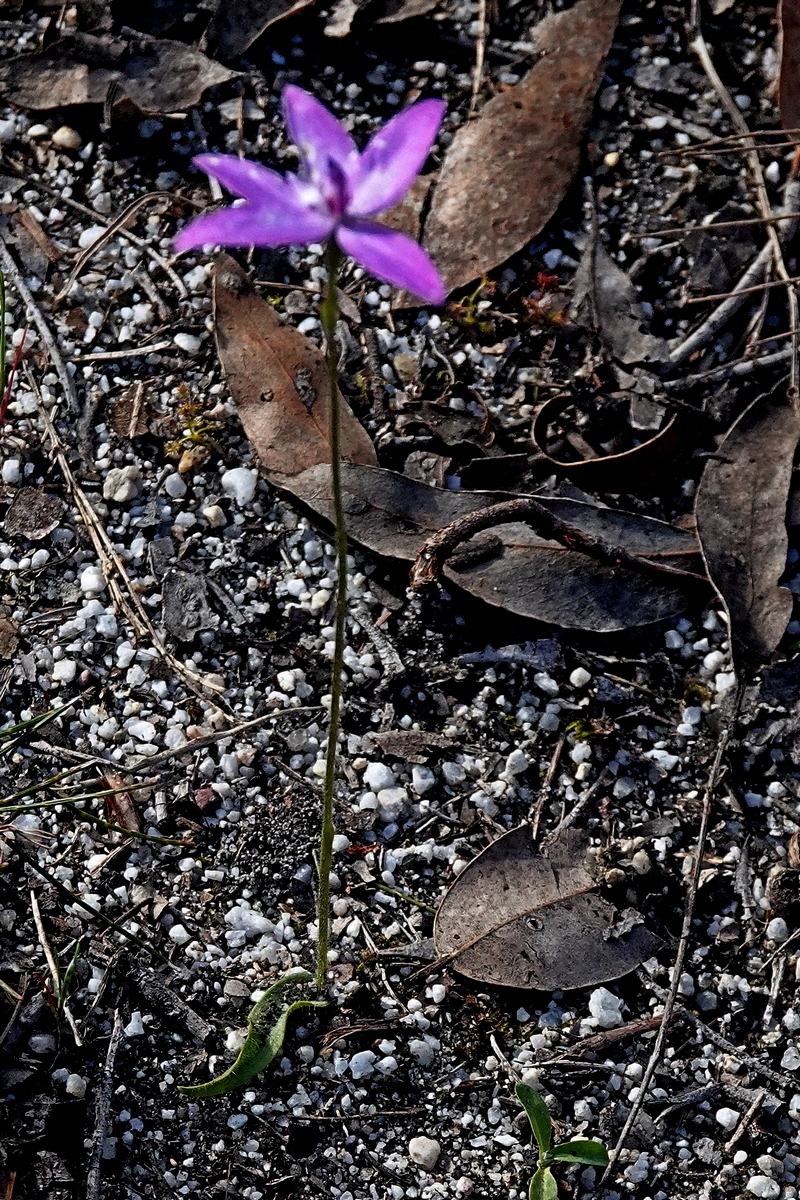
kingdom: Plantae
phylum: Tracheophyta
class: Liliopsida
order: Asparagales
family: Orchidaceae
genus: Caladenia
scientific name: Caladenia major
